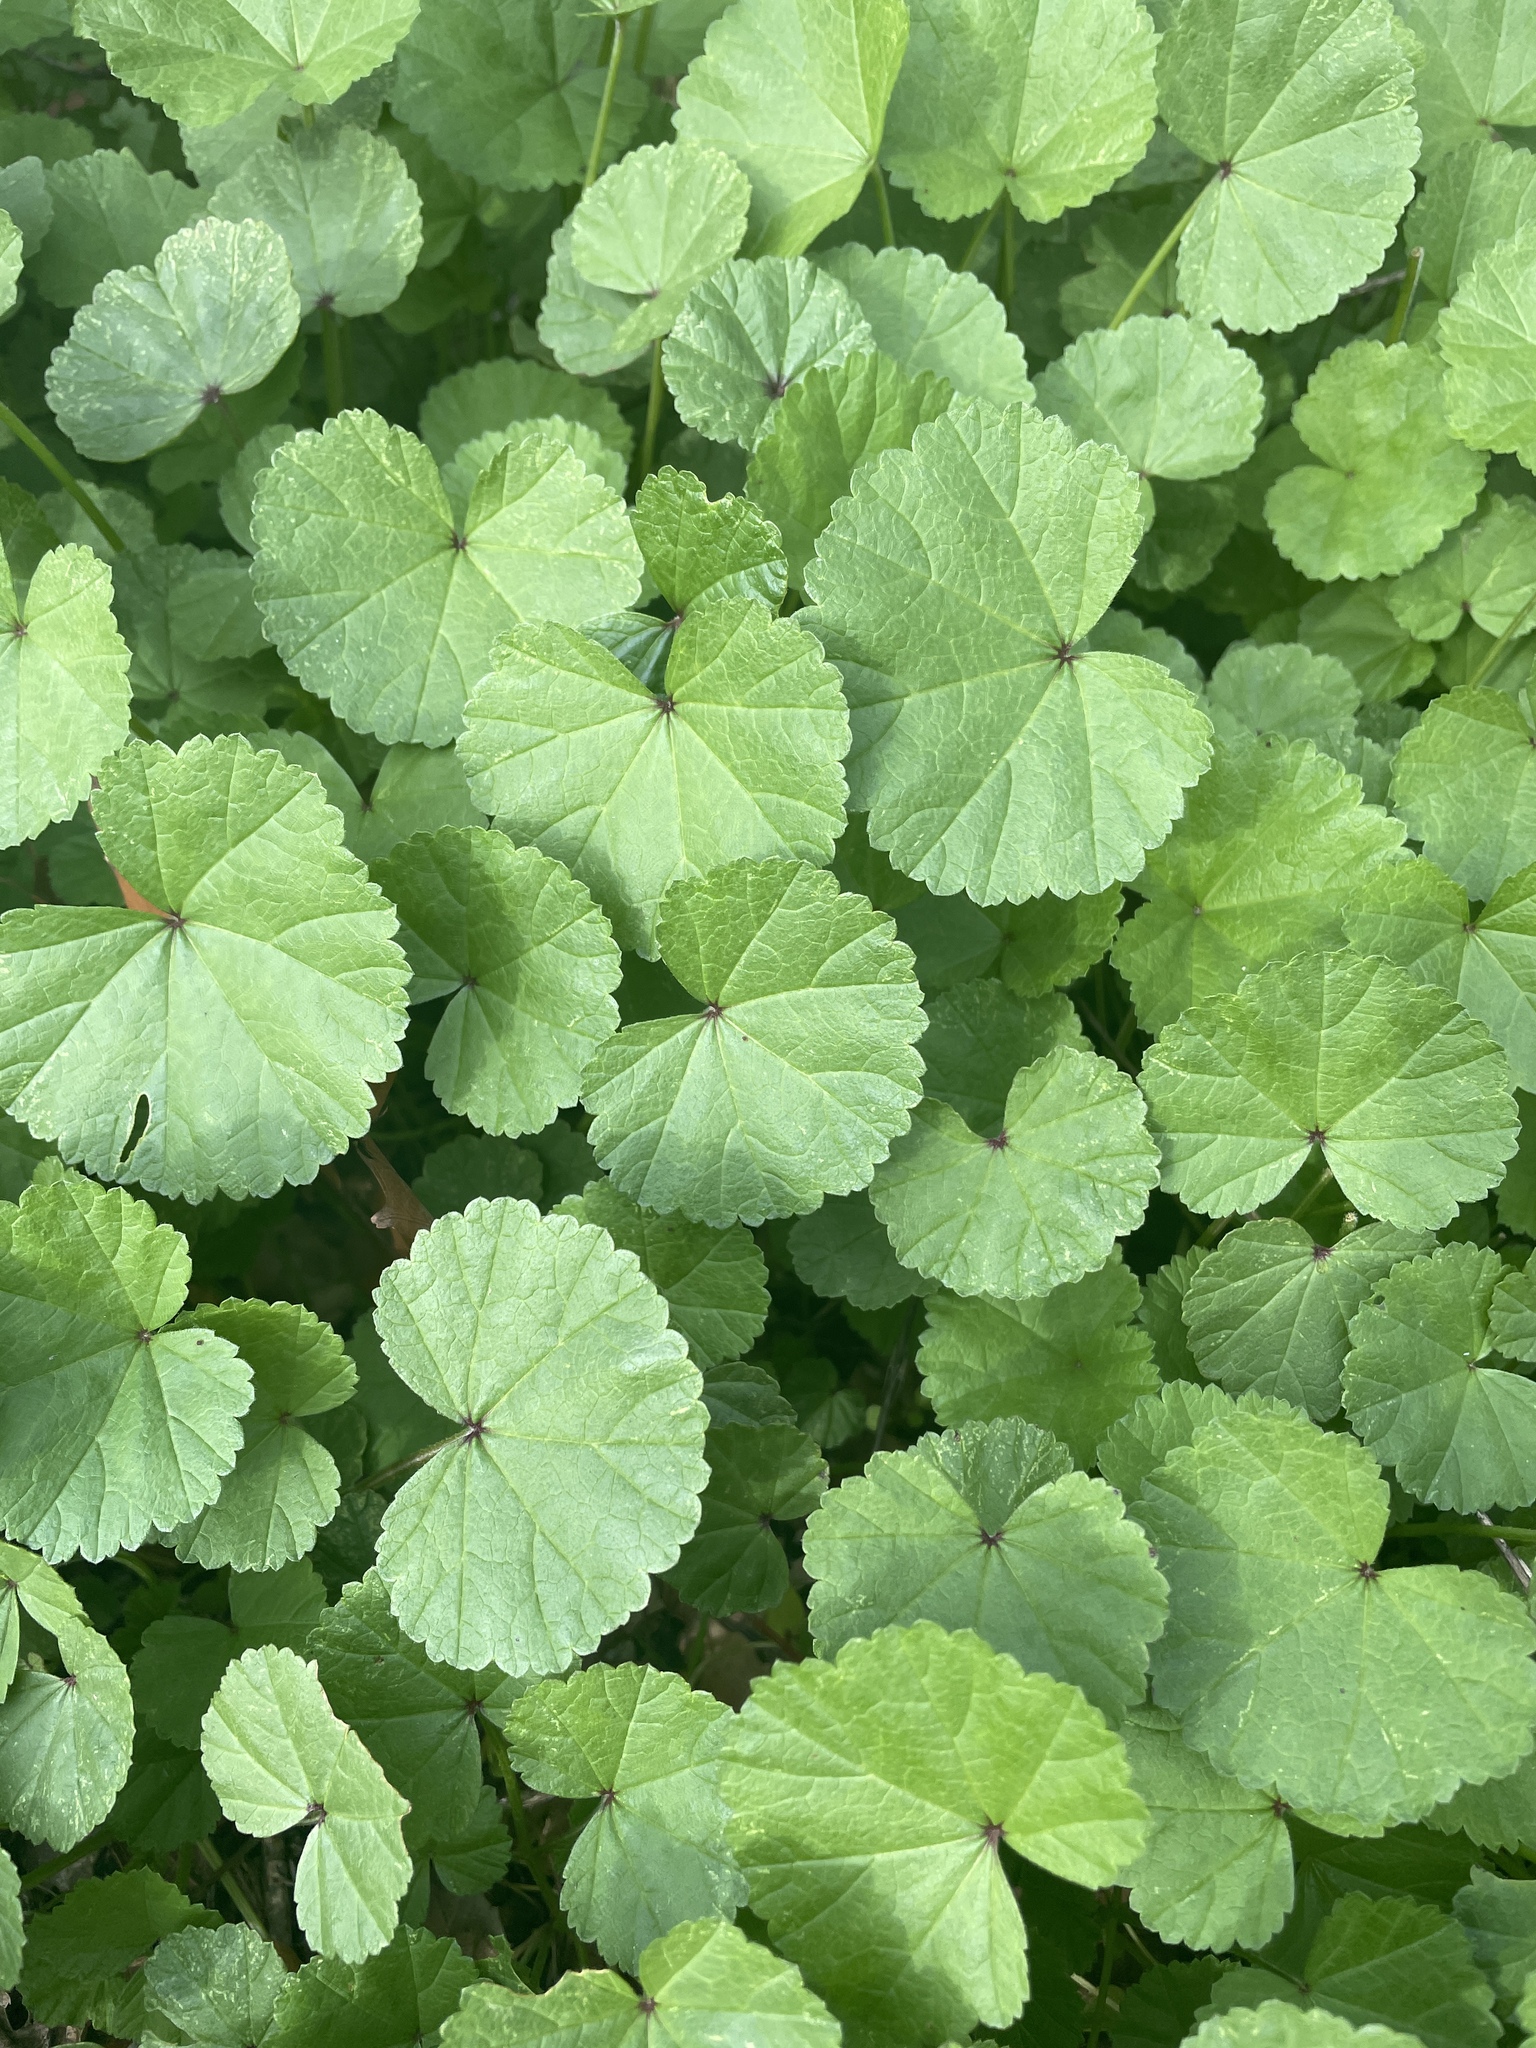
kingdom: Plantae
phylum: Tracheophyta
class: Magnoliopsida
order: Malvales
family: Malvaceae
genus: Malva
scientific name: Malva
